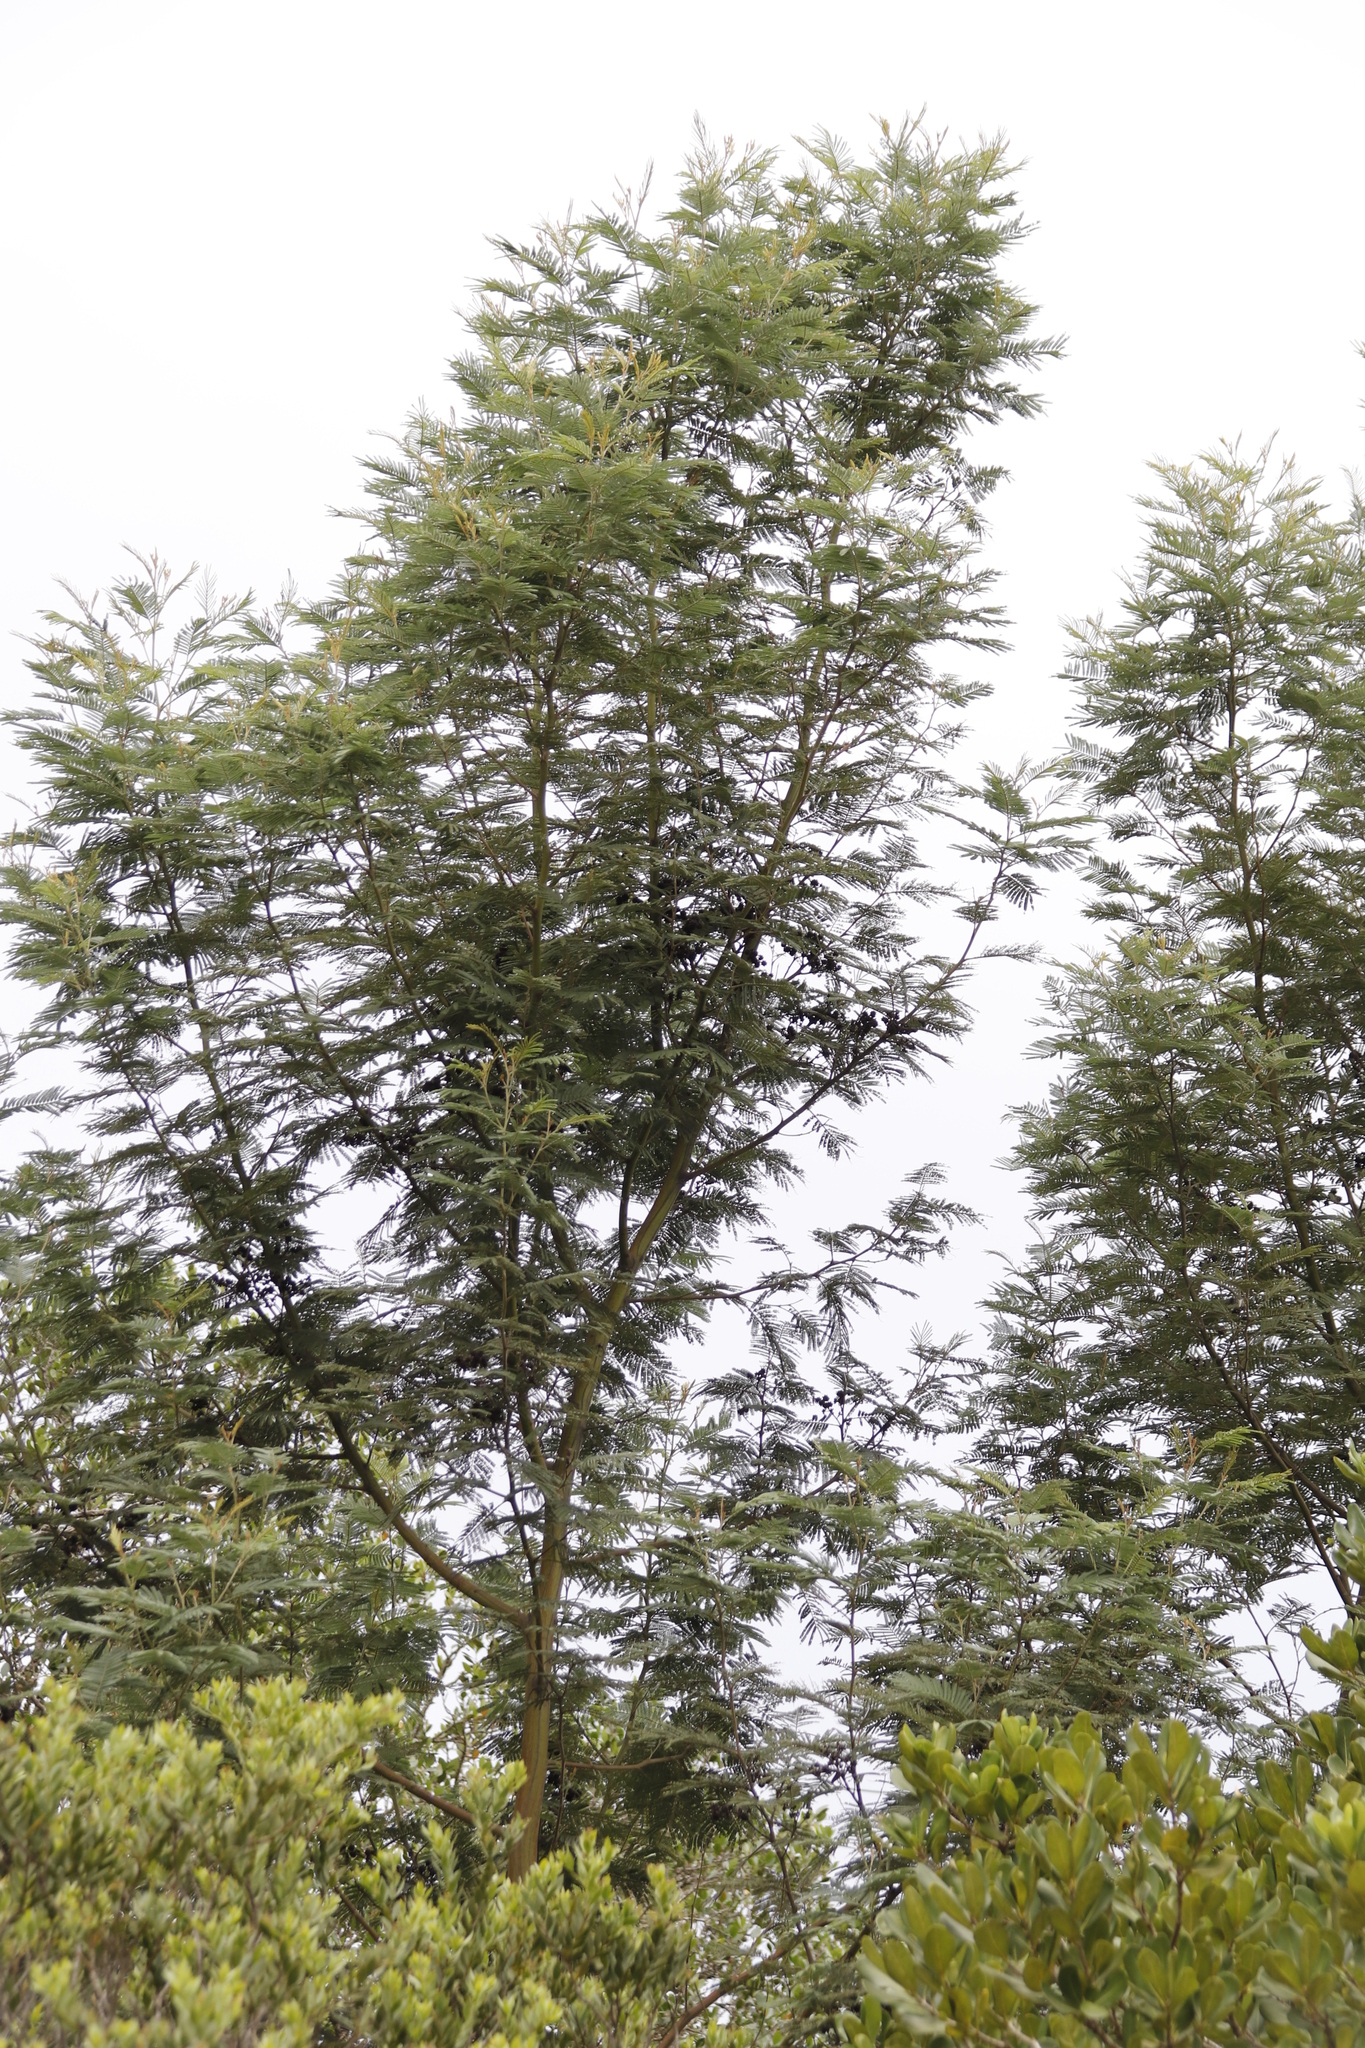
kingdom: Plantae
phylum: Tracheophyta
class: Magnoliopsida
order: Fabales
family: Fabaceae
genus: Acacia
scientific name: Acacia mearnsii
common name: Black wattle
